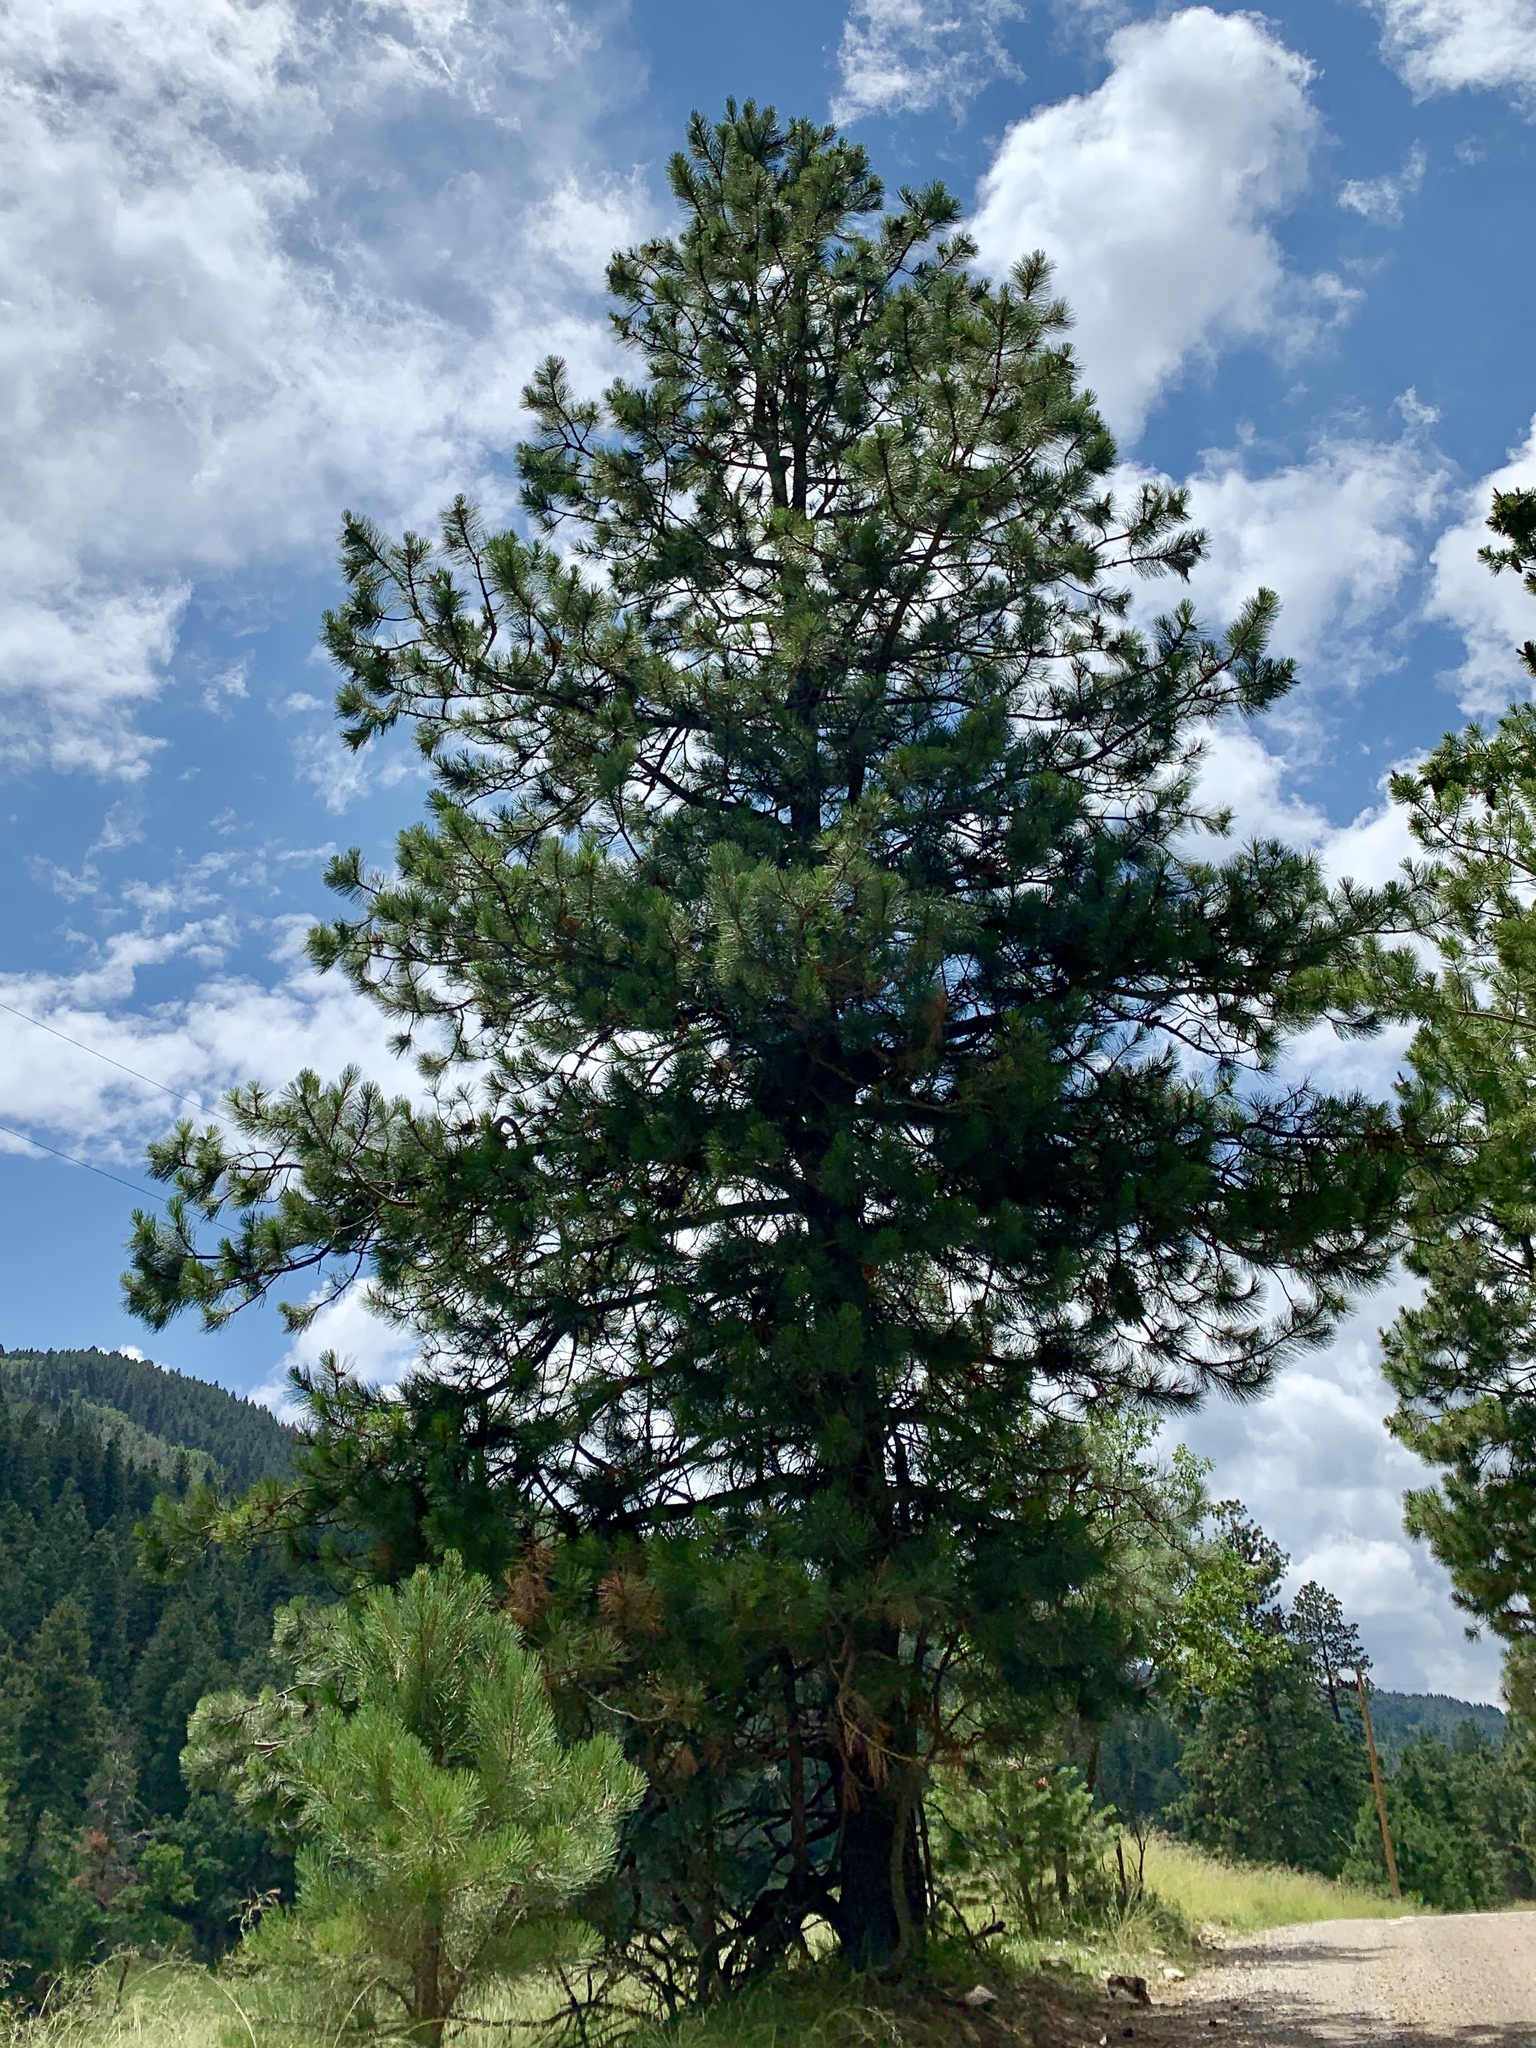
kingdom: Plantae
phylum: Tracheophyta
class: Pinopsida
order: Pinales
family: Pinaceae
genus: Pinus
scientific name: Pinus ponderosa
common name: Western yellow-pine
